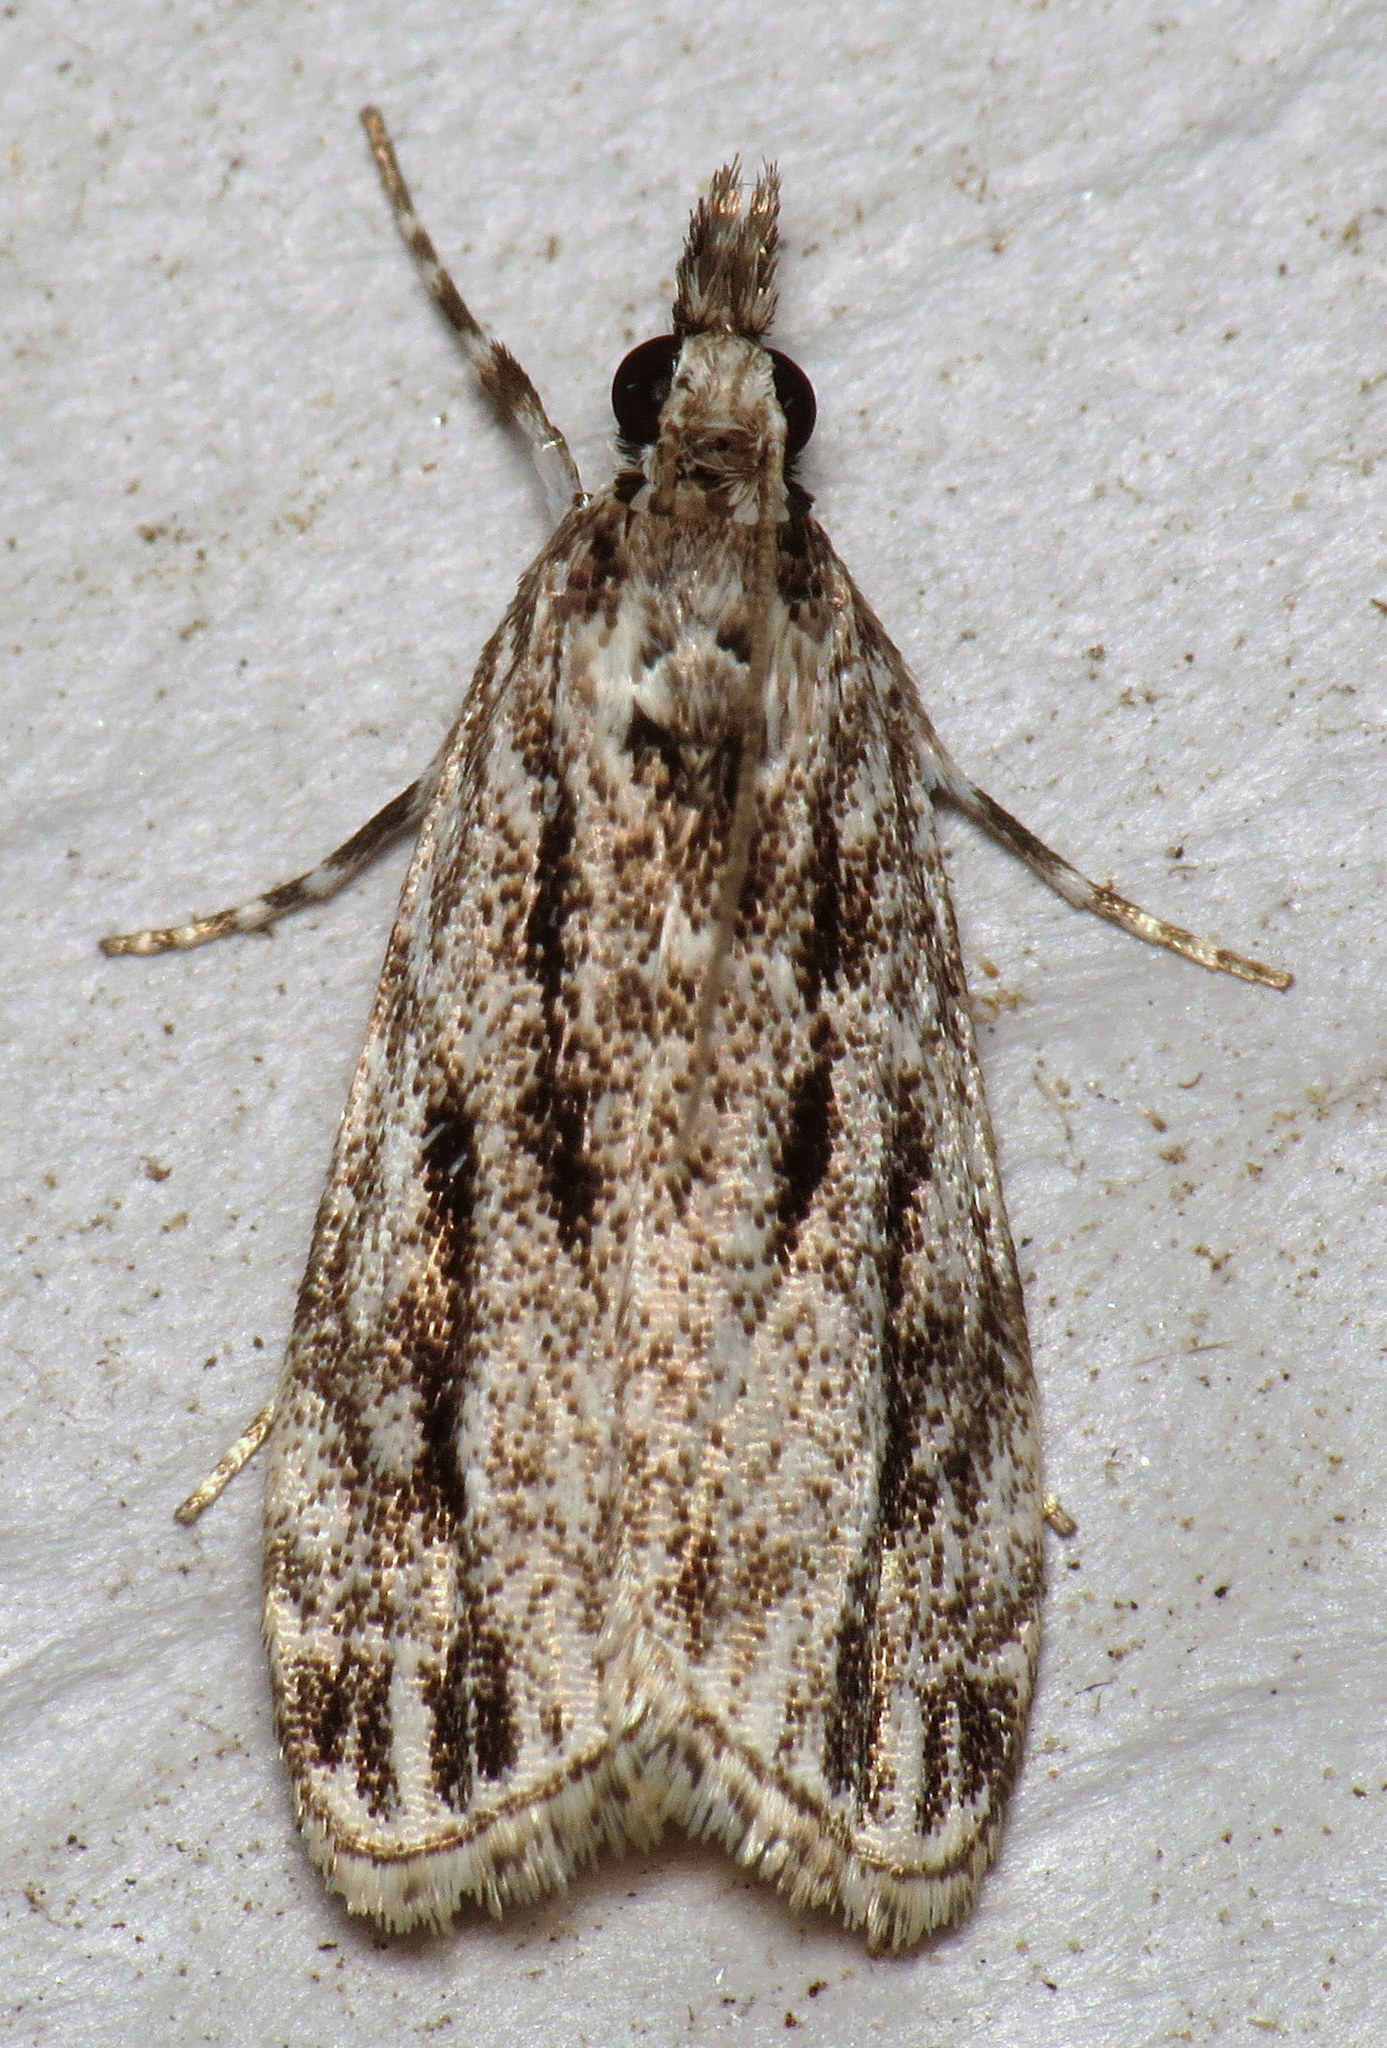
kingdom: Animalia
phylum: Arthropoda
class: Insecta
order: Lepidoptera
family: Crambidae
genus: Eudonia
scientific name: Eudonia strigalis
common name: Striped eudonia moth
